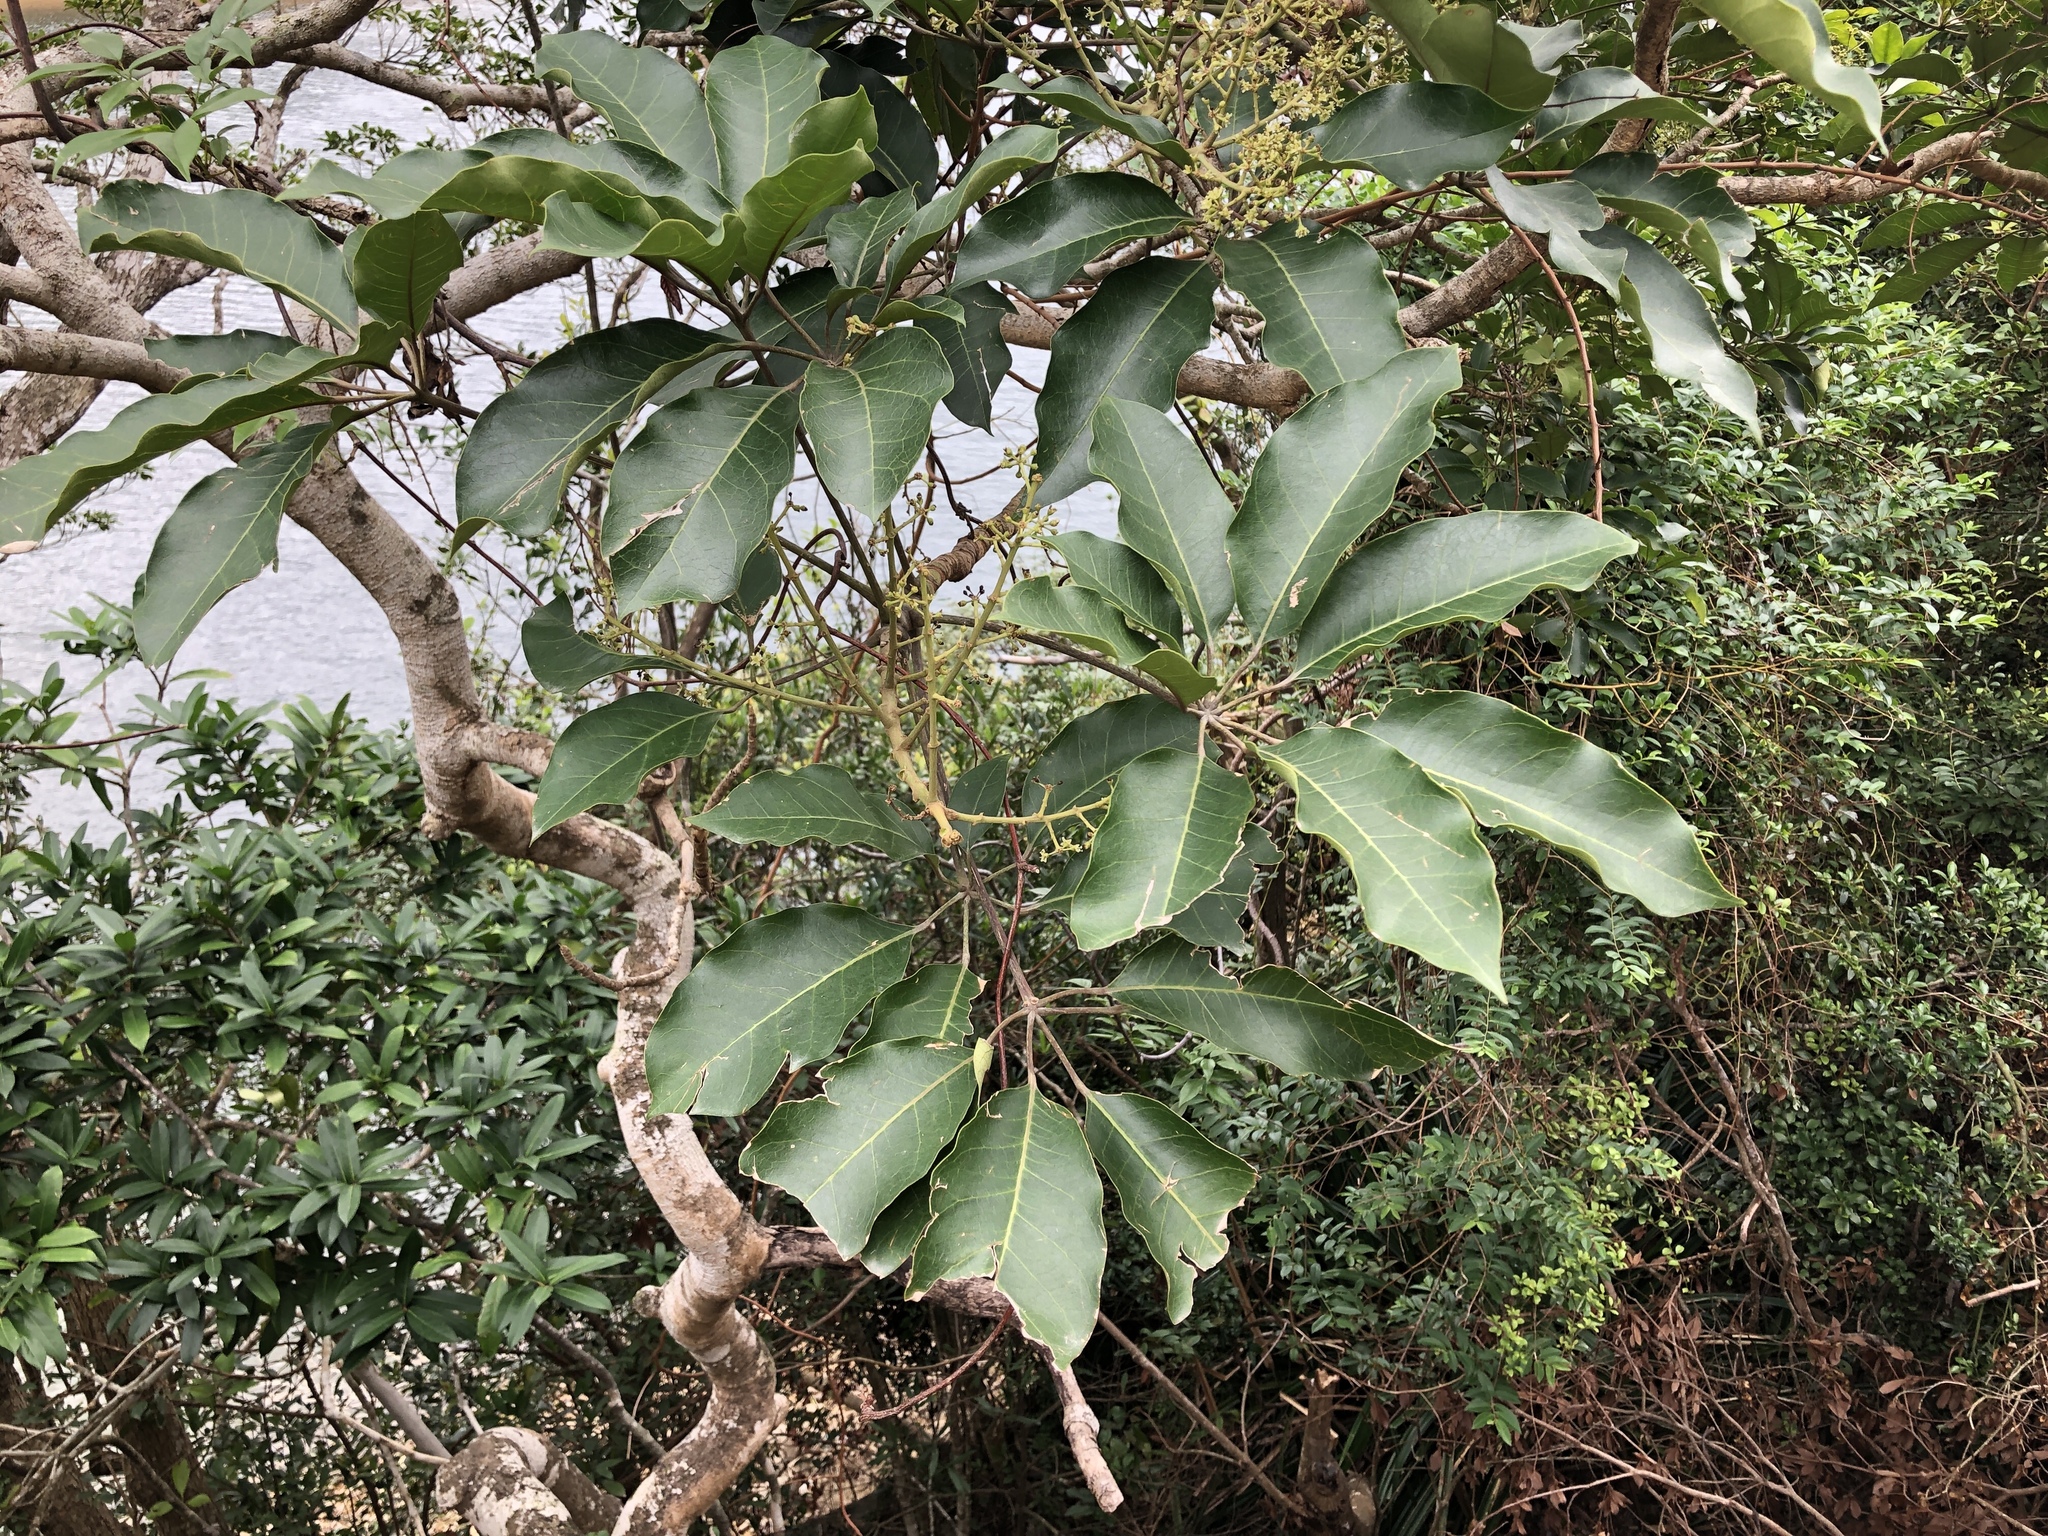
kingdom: Plantae
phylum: Tracheophyta
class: Magnoliopsida
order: Apiales
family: Araliaceae
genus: Heptapleurum
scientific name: Heptapleurum heptaphyllum
